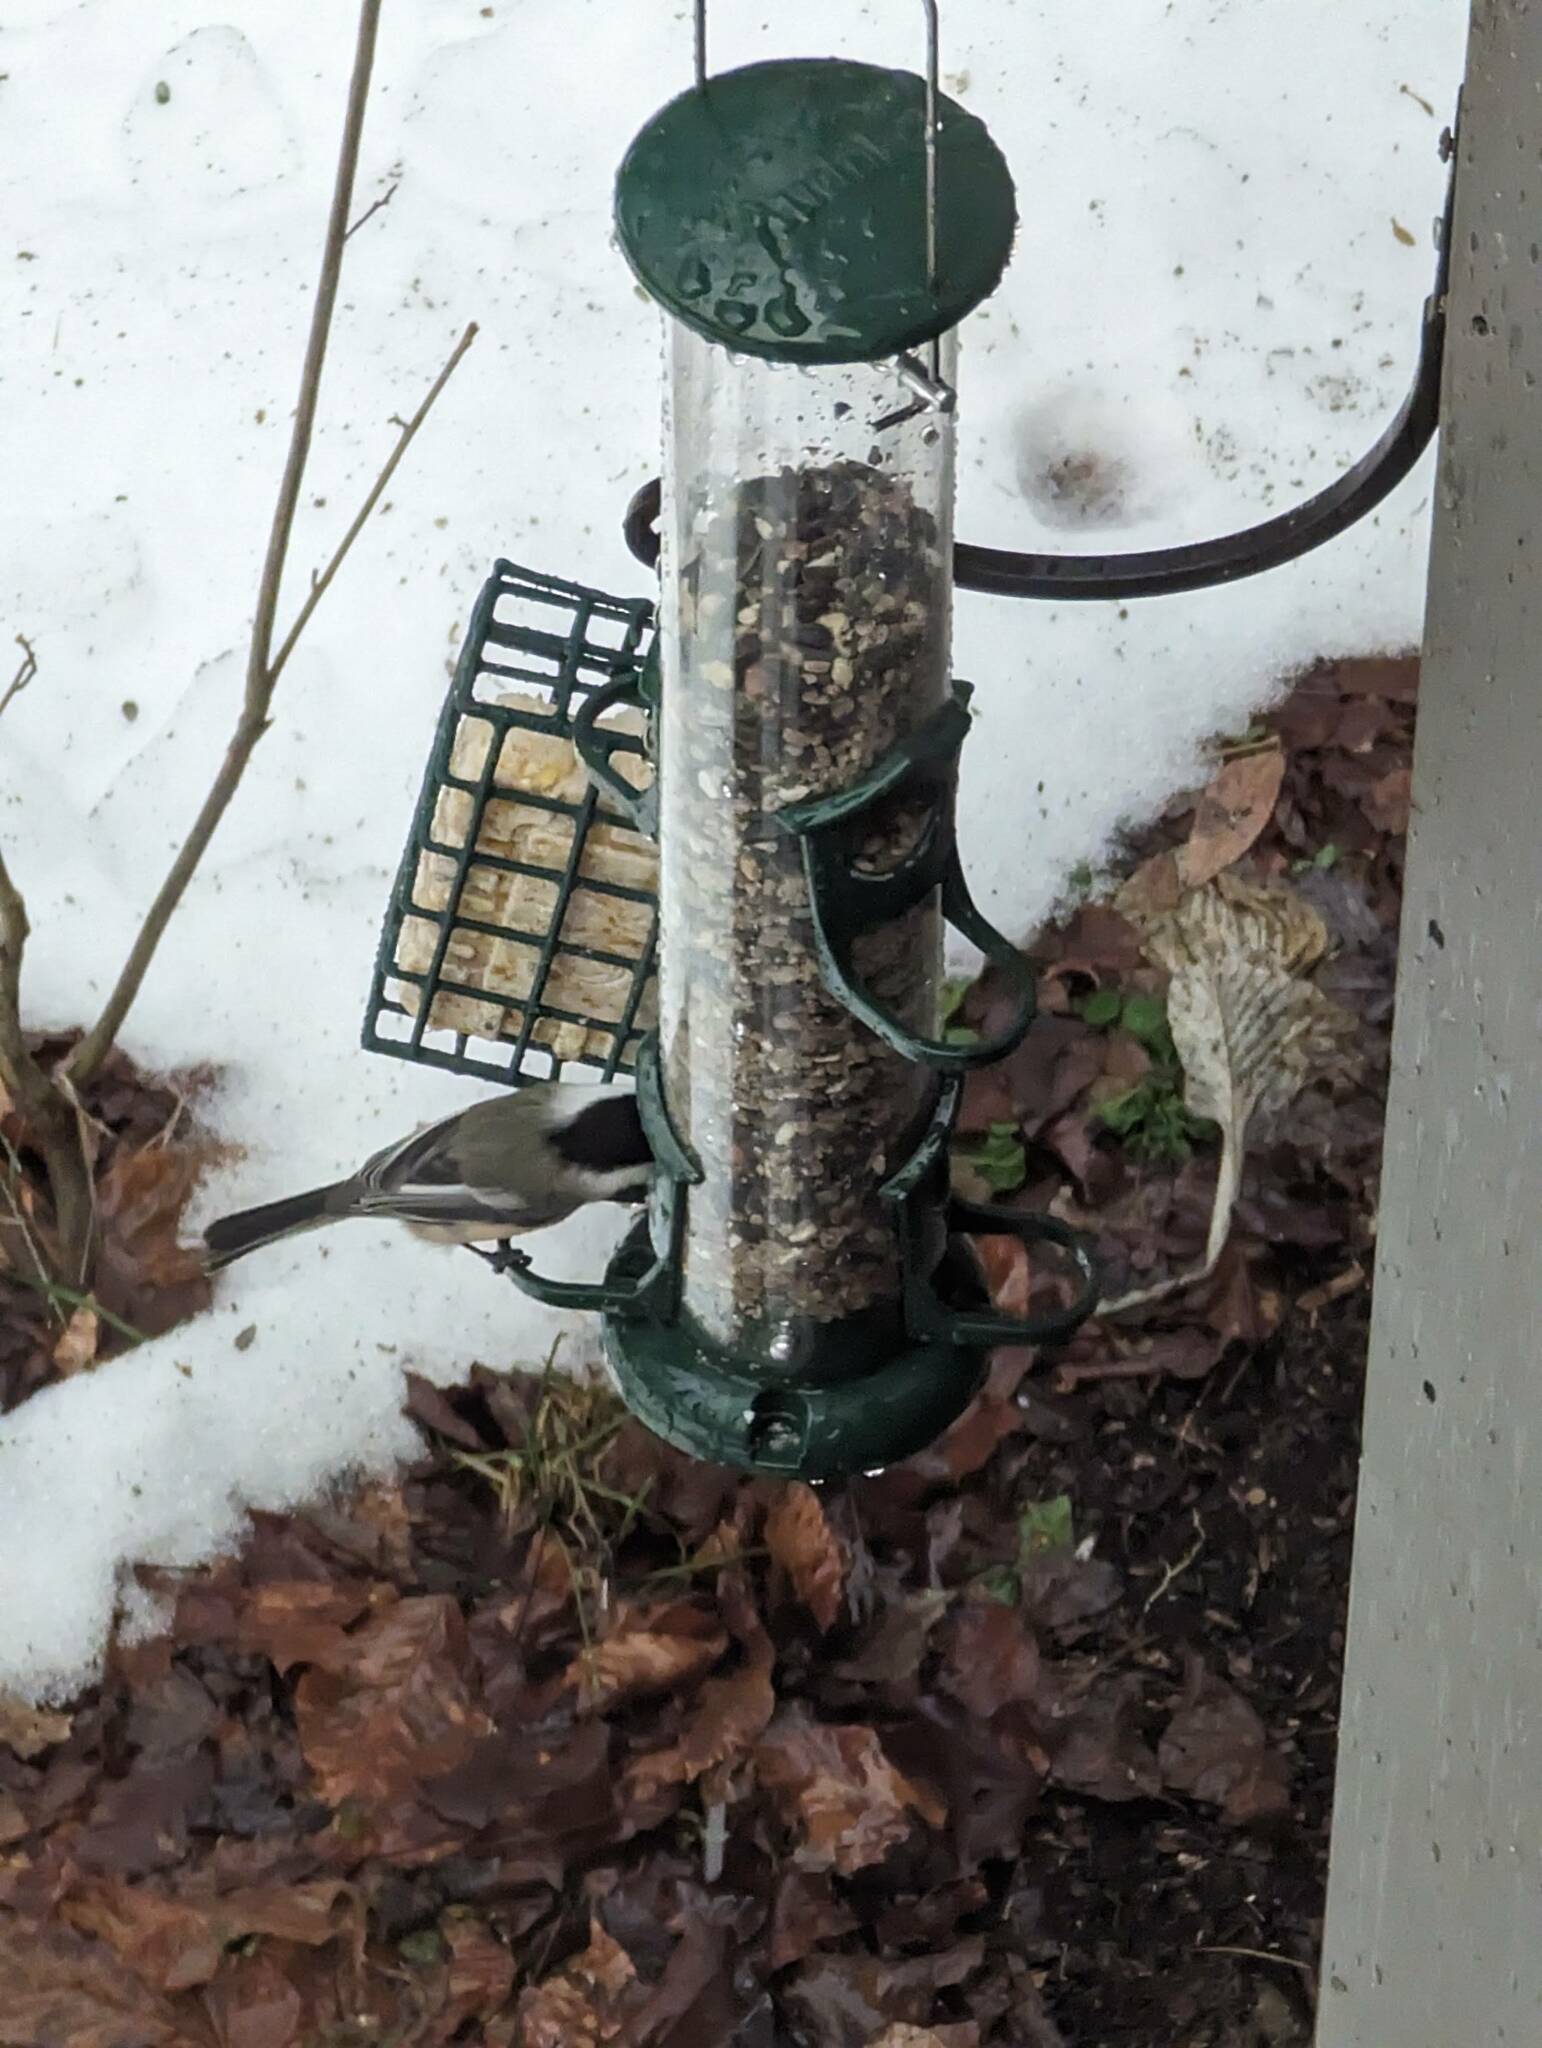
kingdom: Animalia
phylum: Chordata
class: Aves
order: Passeriformes
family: Paridae
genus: Poecile
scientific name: Poecile atricapillus
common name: Black-capped chickadee
